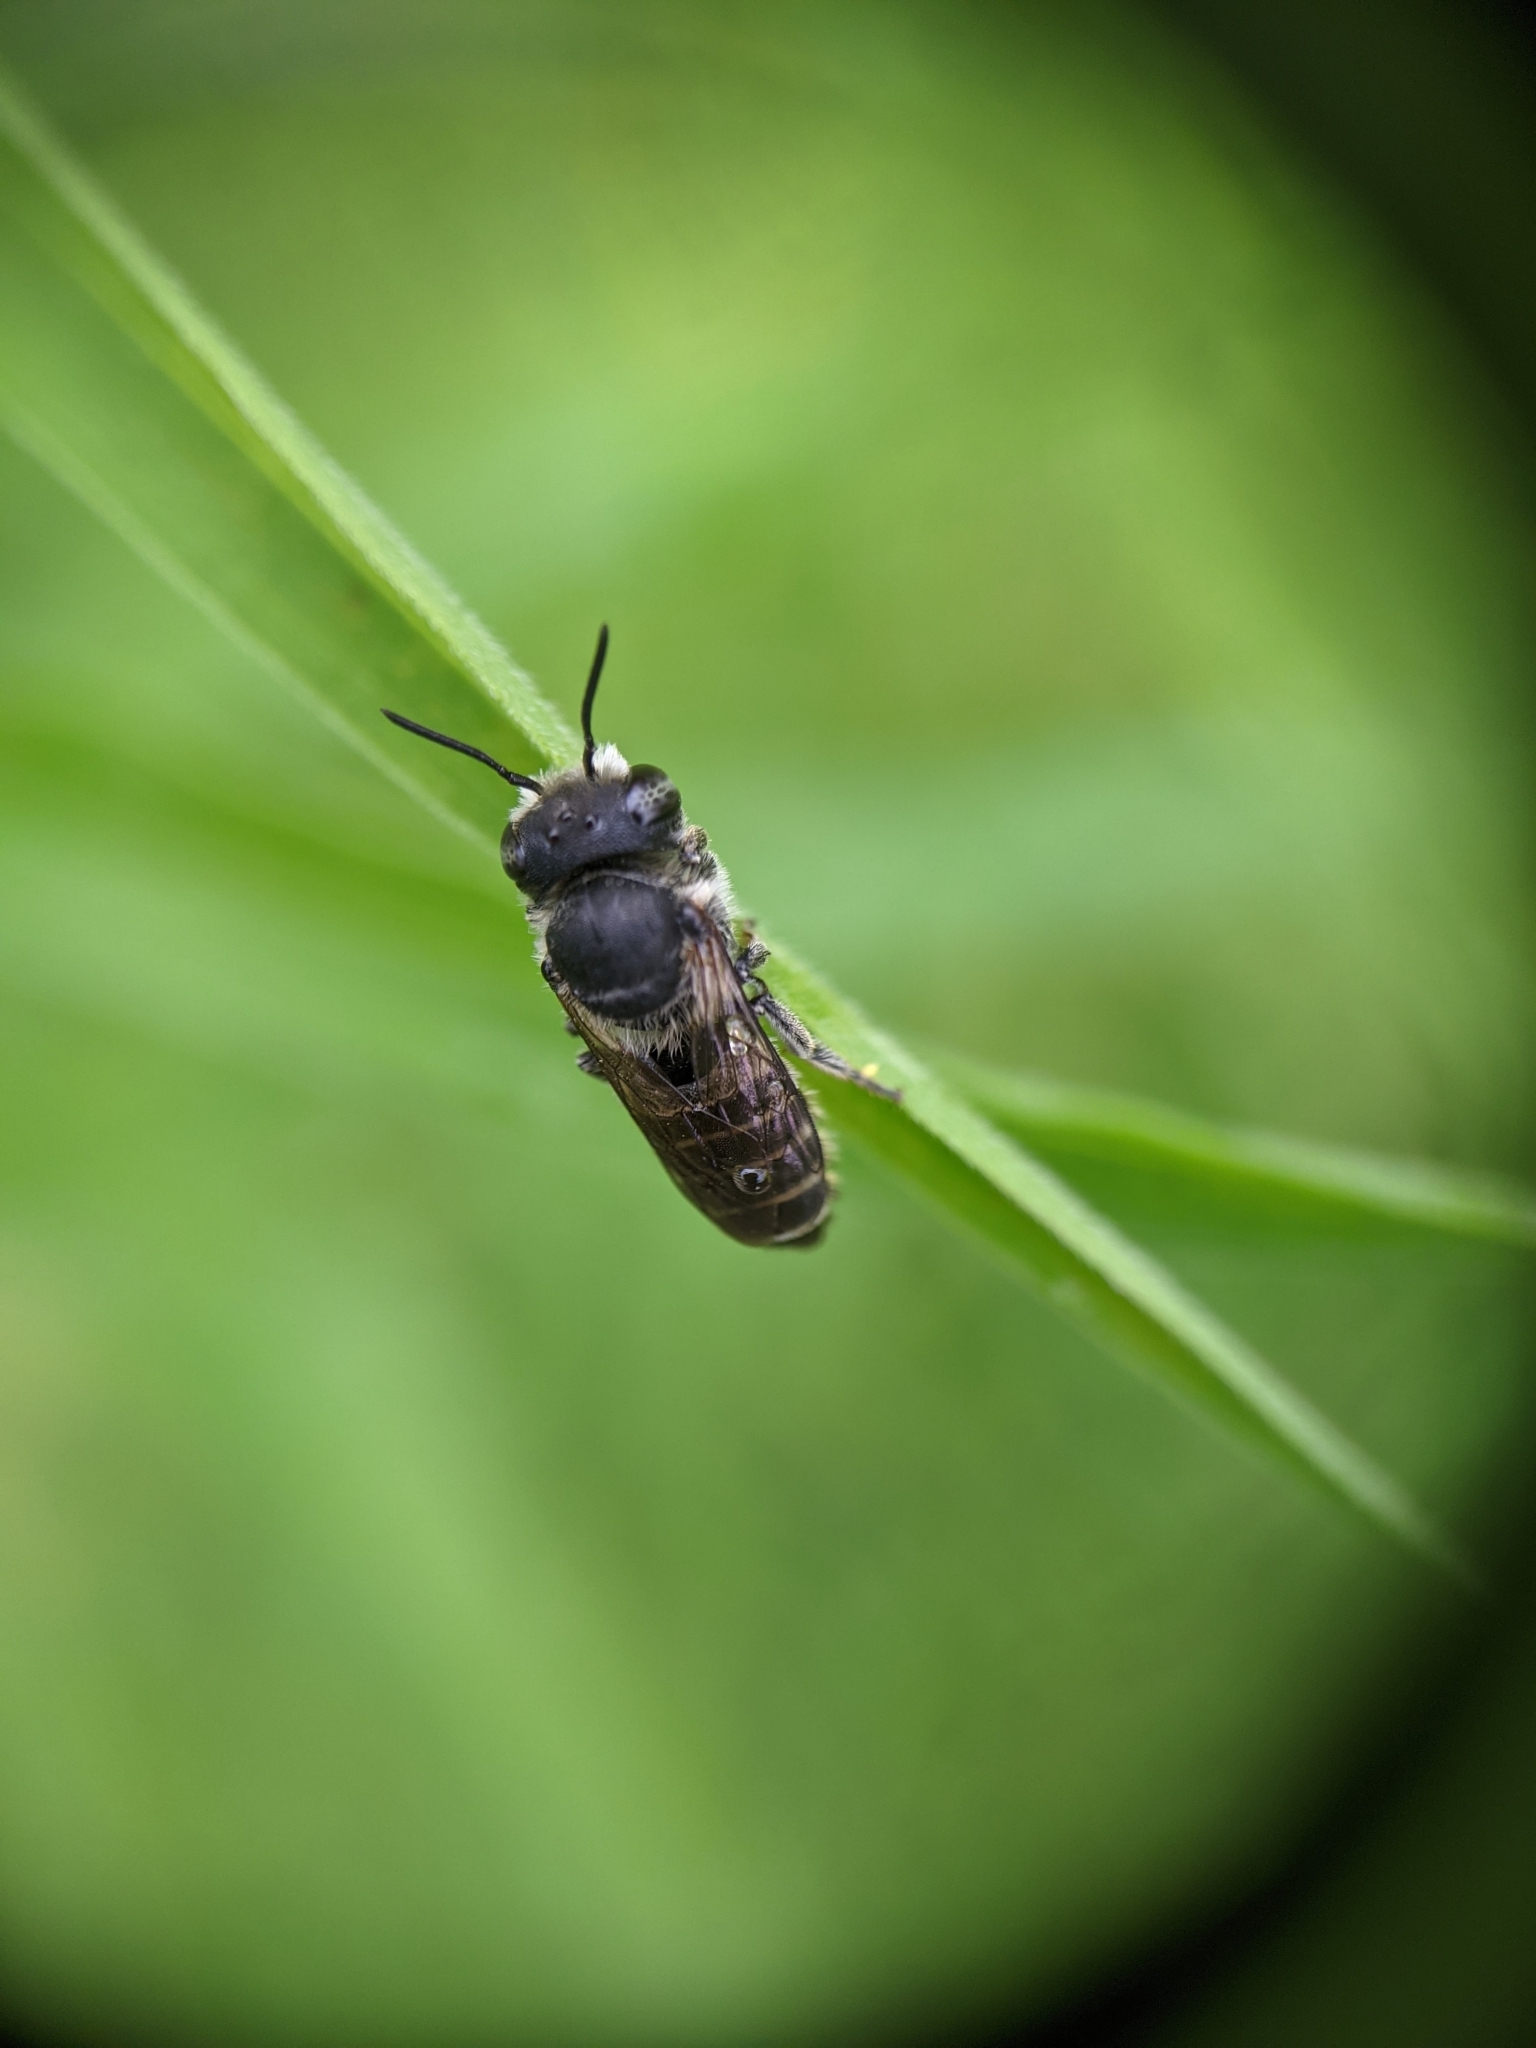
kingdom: Animalia
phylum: Arthropoda
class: Insecta
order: Hymenoptera
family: Megachilidae
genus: Megachile
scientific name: Megachile rotundata
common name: Alfalfa leafcutting bee
